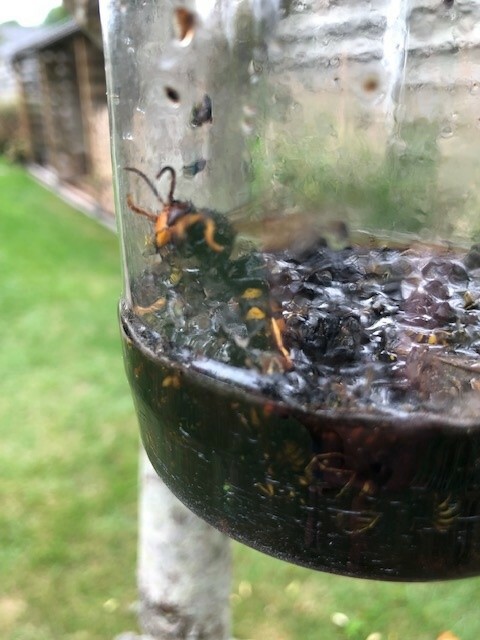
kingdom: Animalia
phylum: Arthropoda
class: Insecta
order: Hymenoptera
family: Vespidae
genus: Vespa
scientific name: Vespa velutina
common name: Asian hornet
